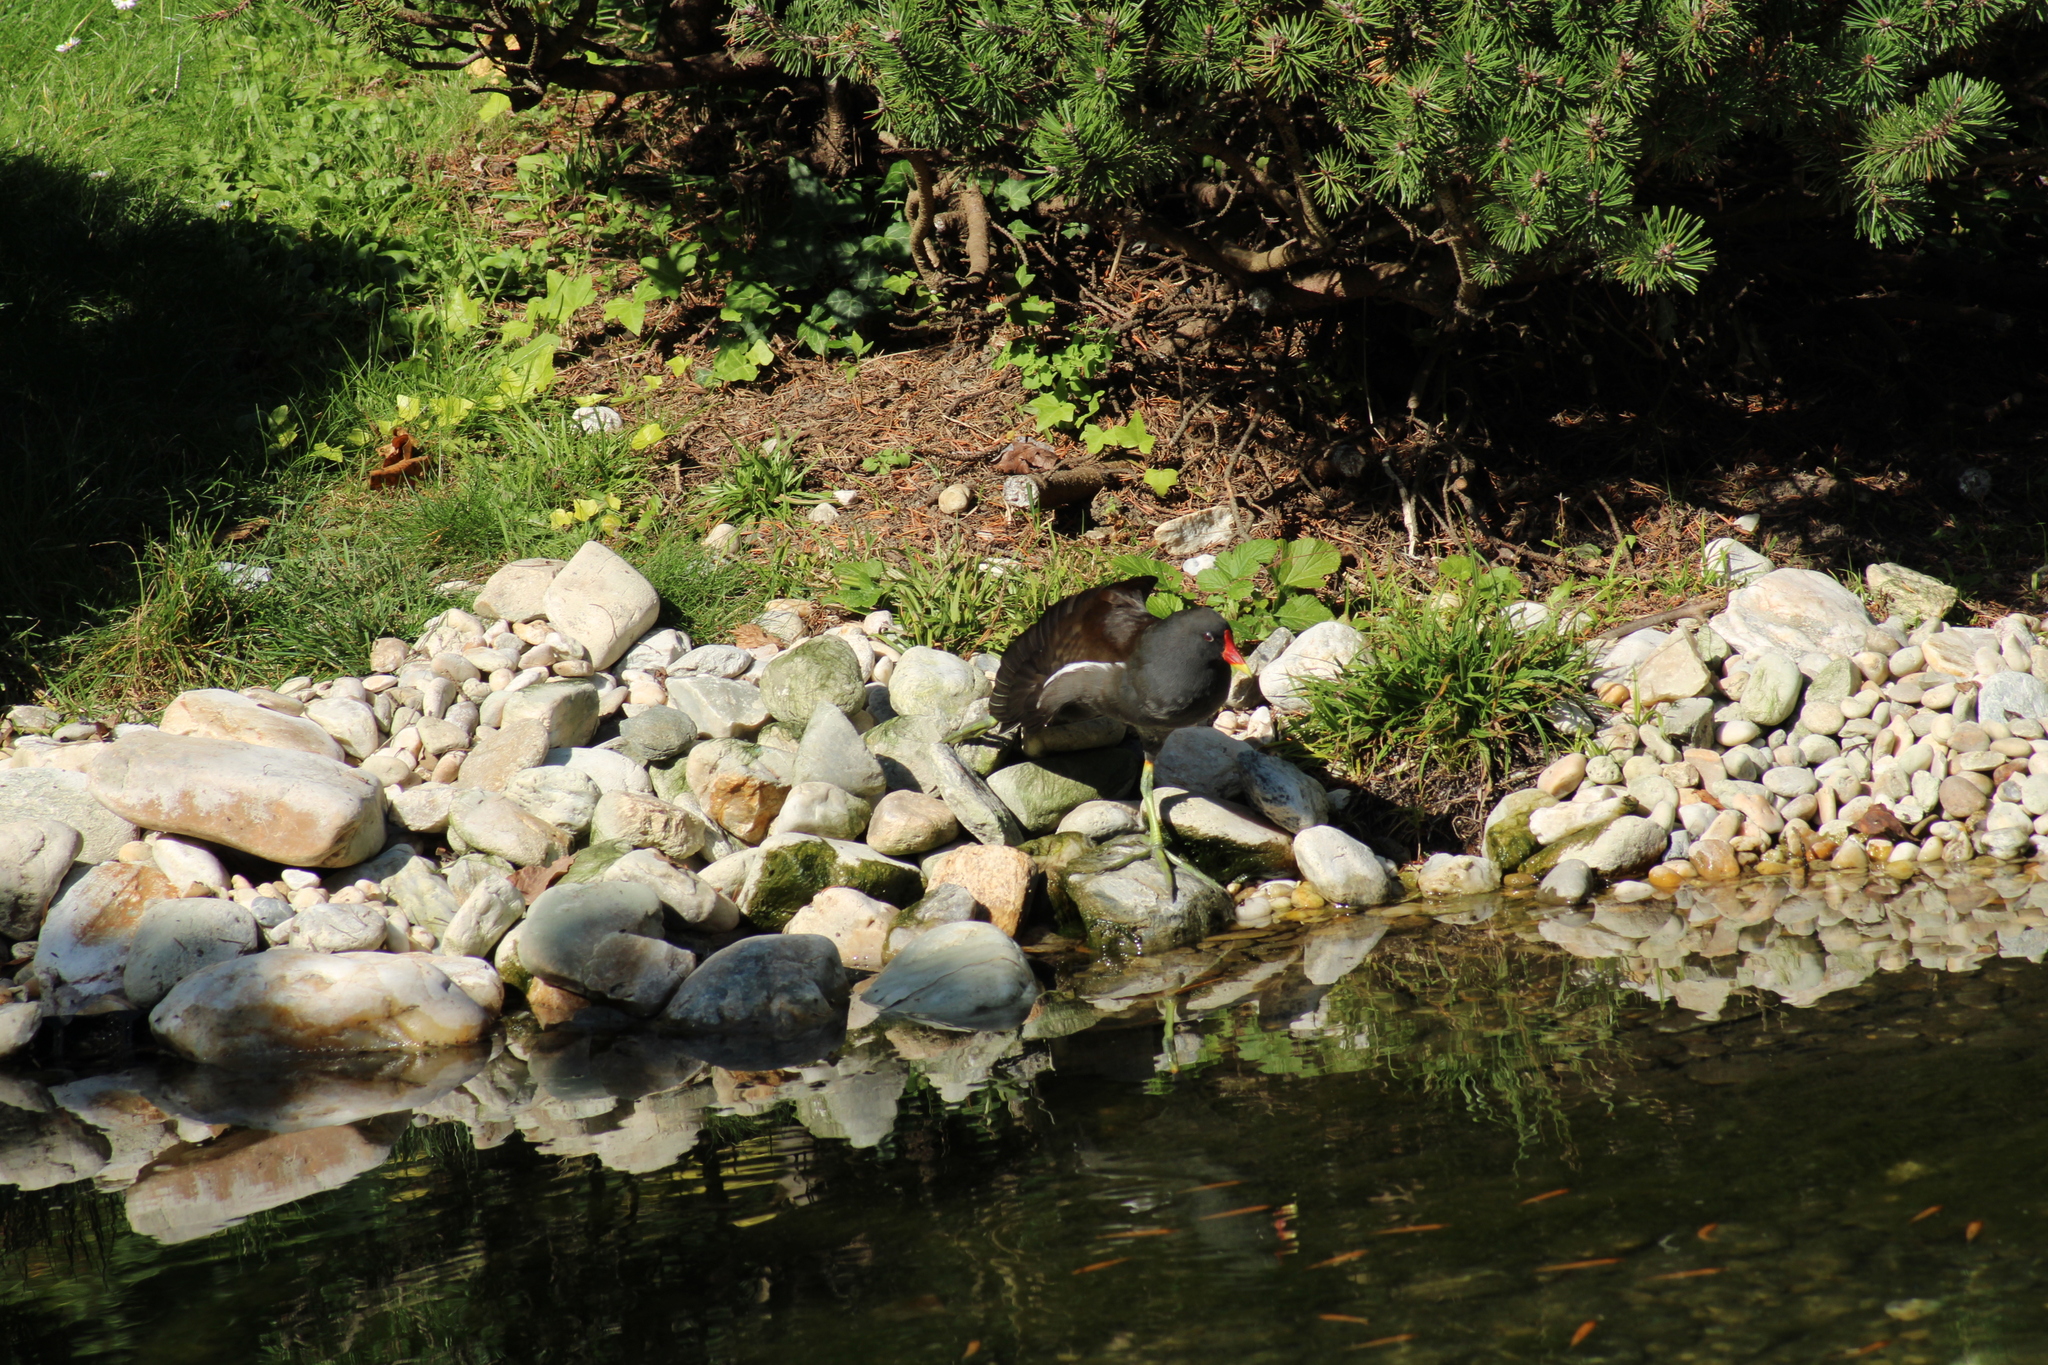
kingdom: Animalia
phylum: Chordata
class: Aves
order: Gruiformes
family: Rallidae
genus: Gallinula
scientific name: Gallinula chloropus
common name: Common moorhen
